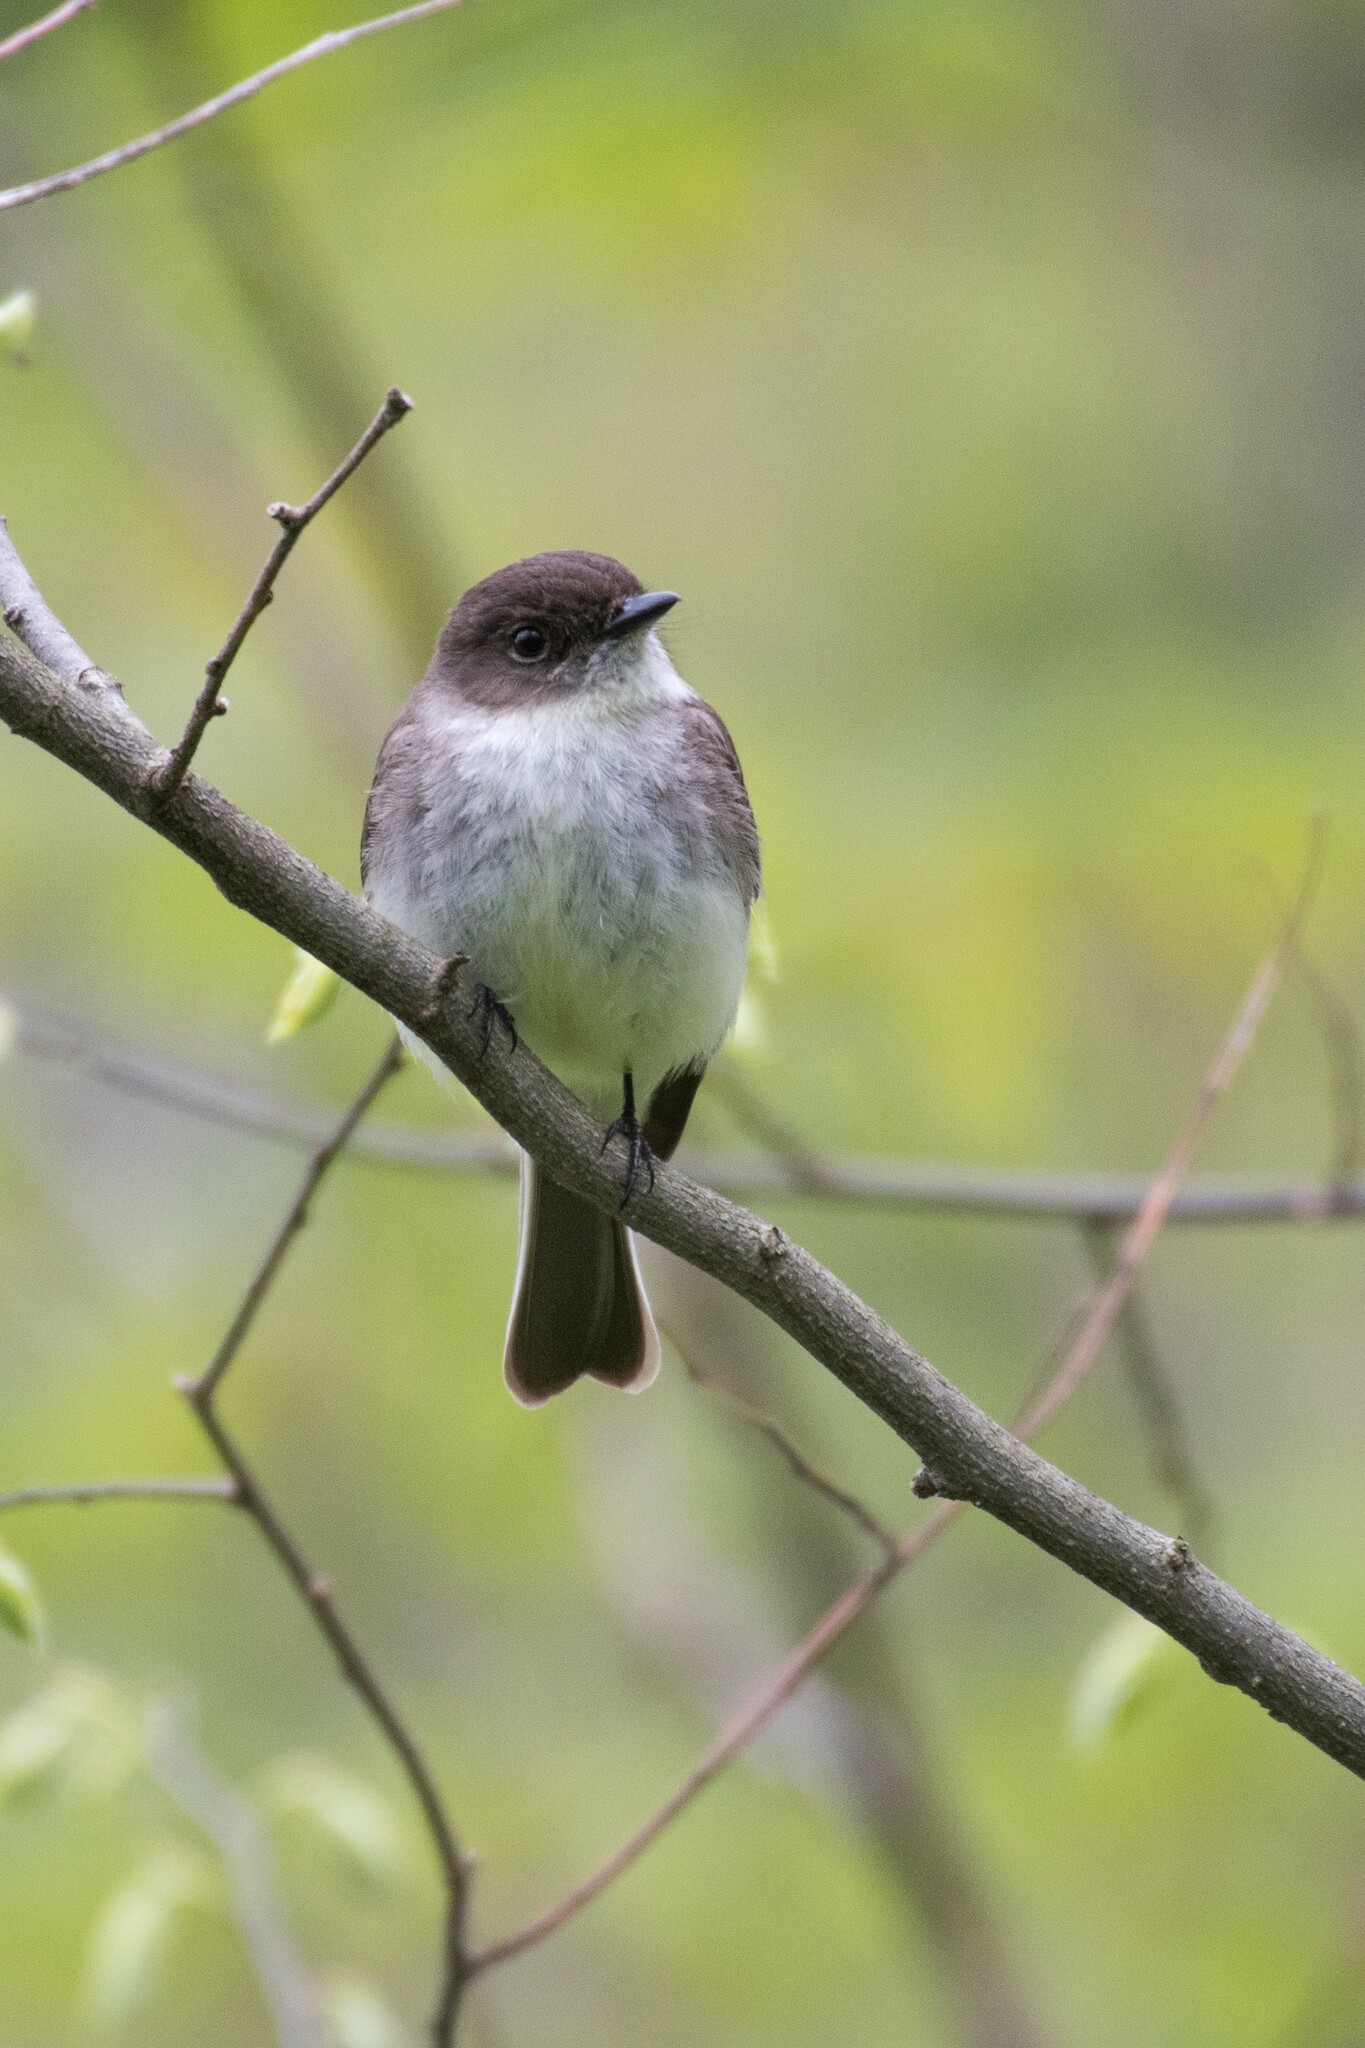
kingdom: Animalia
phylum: Chordata
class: Aves
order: Passeriformes
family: Tyrannidae
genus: Sayornis
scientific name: Sayornis phoebe
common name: Eastern phoebe
